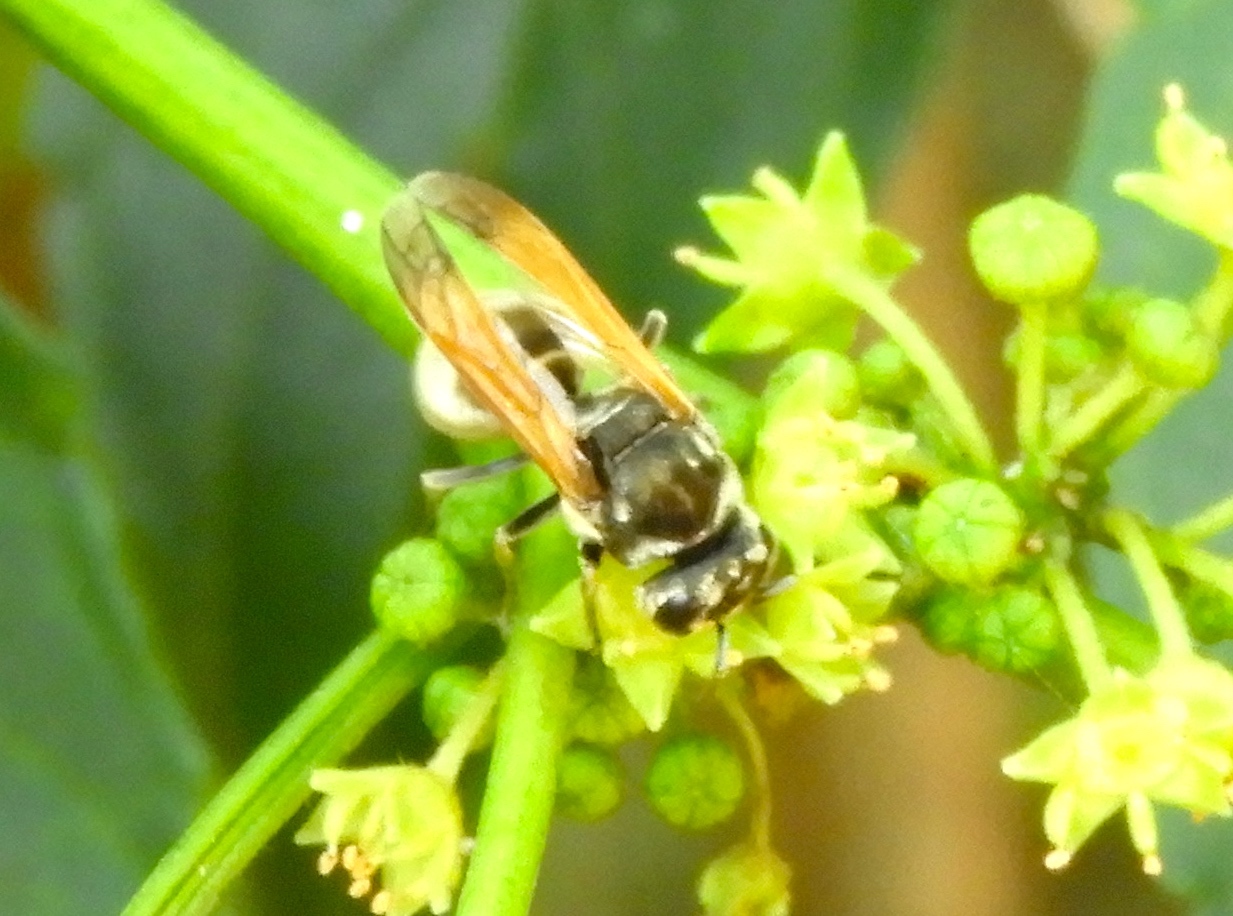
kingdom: Animalia
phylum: Arthropoda
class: Insecta
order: Hymenoptera
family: Vespidae
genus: Brachygastra
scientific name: Brachygastra mellifica
